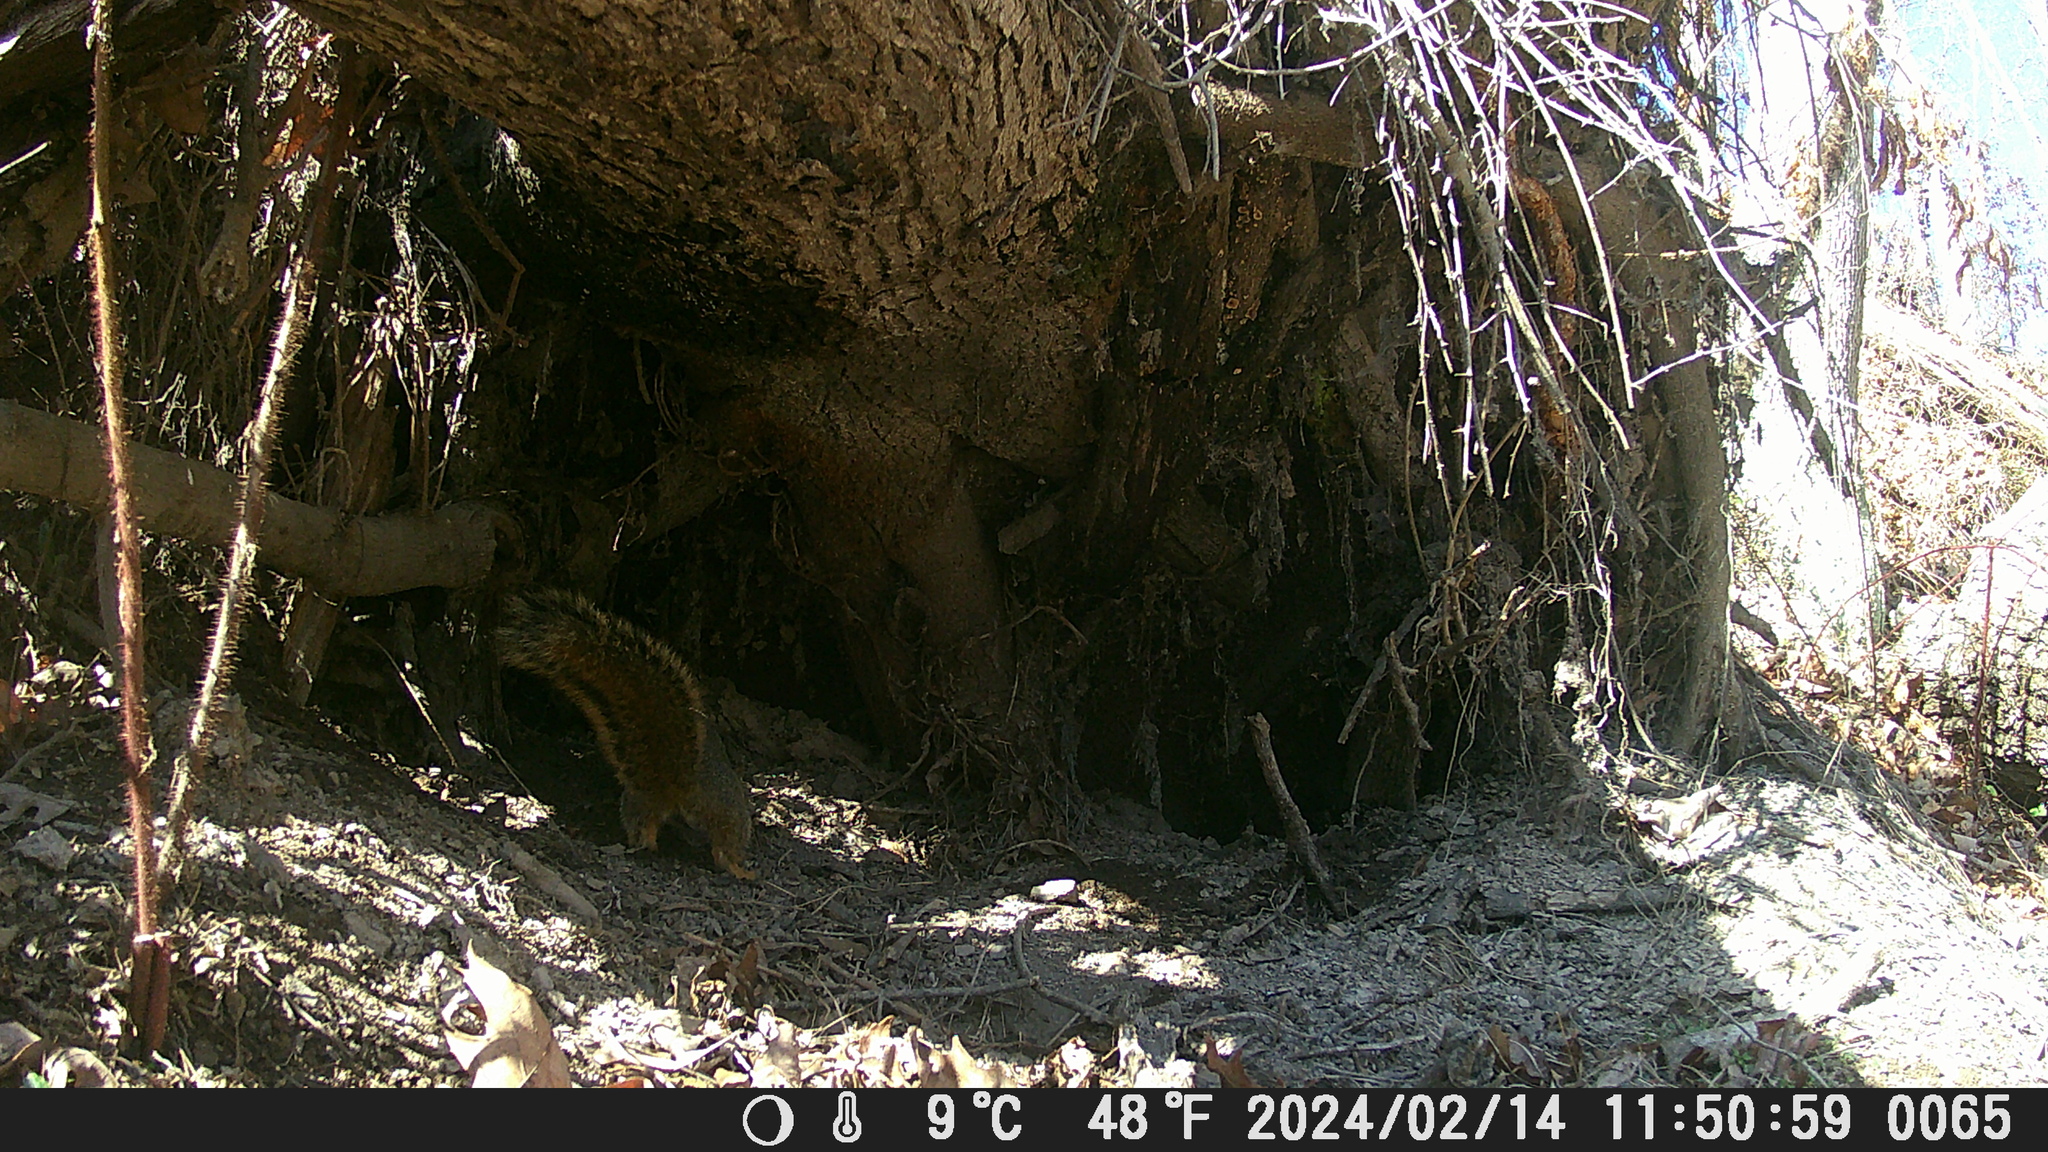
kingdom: Animalia
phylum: Chordata
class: Mammalia
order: Rodentia
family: Sciuridae
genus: Sciurus
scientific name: Sciurus niger
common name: Fox squirrel
